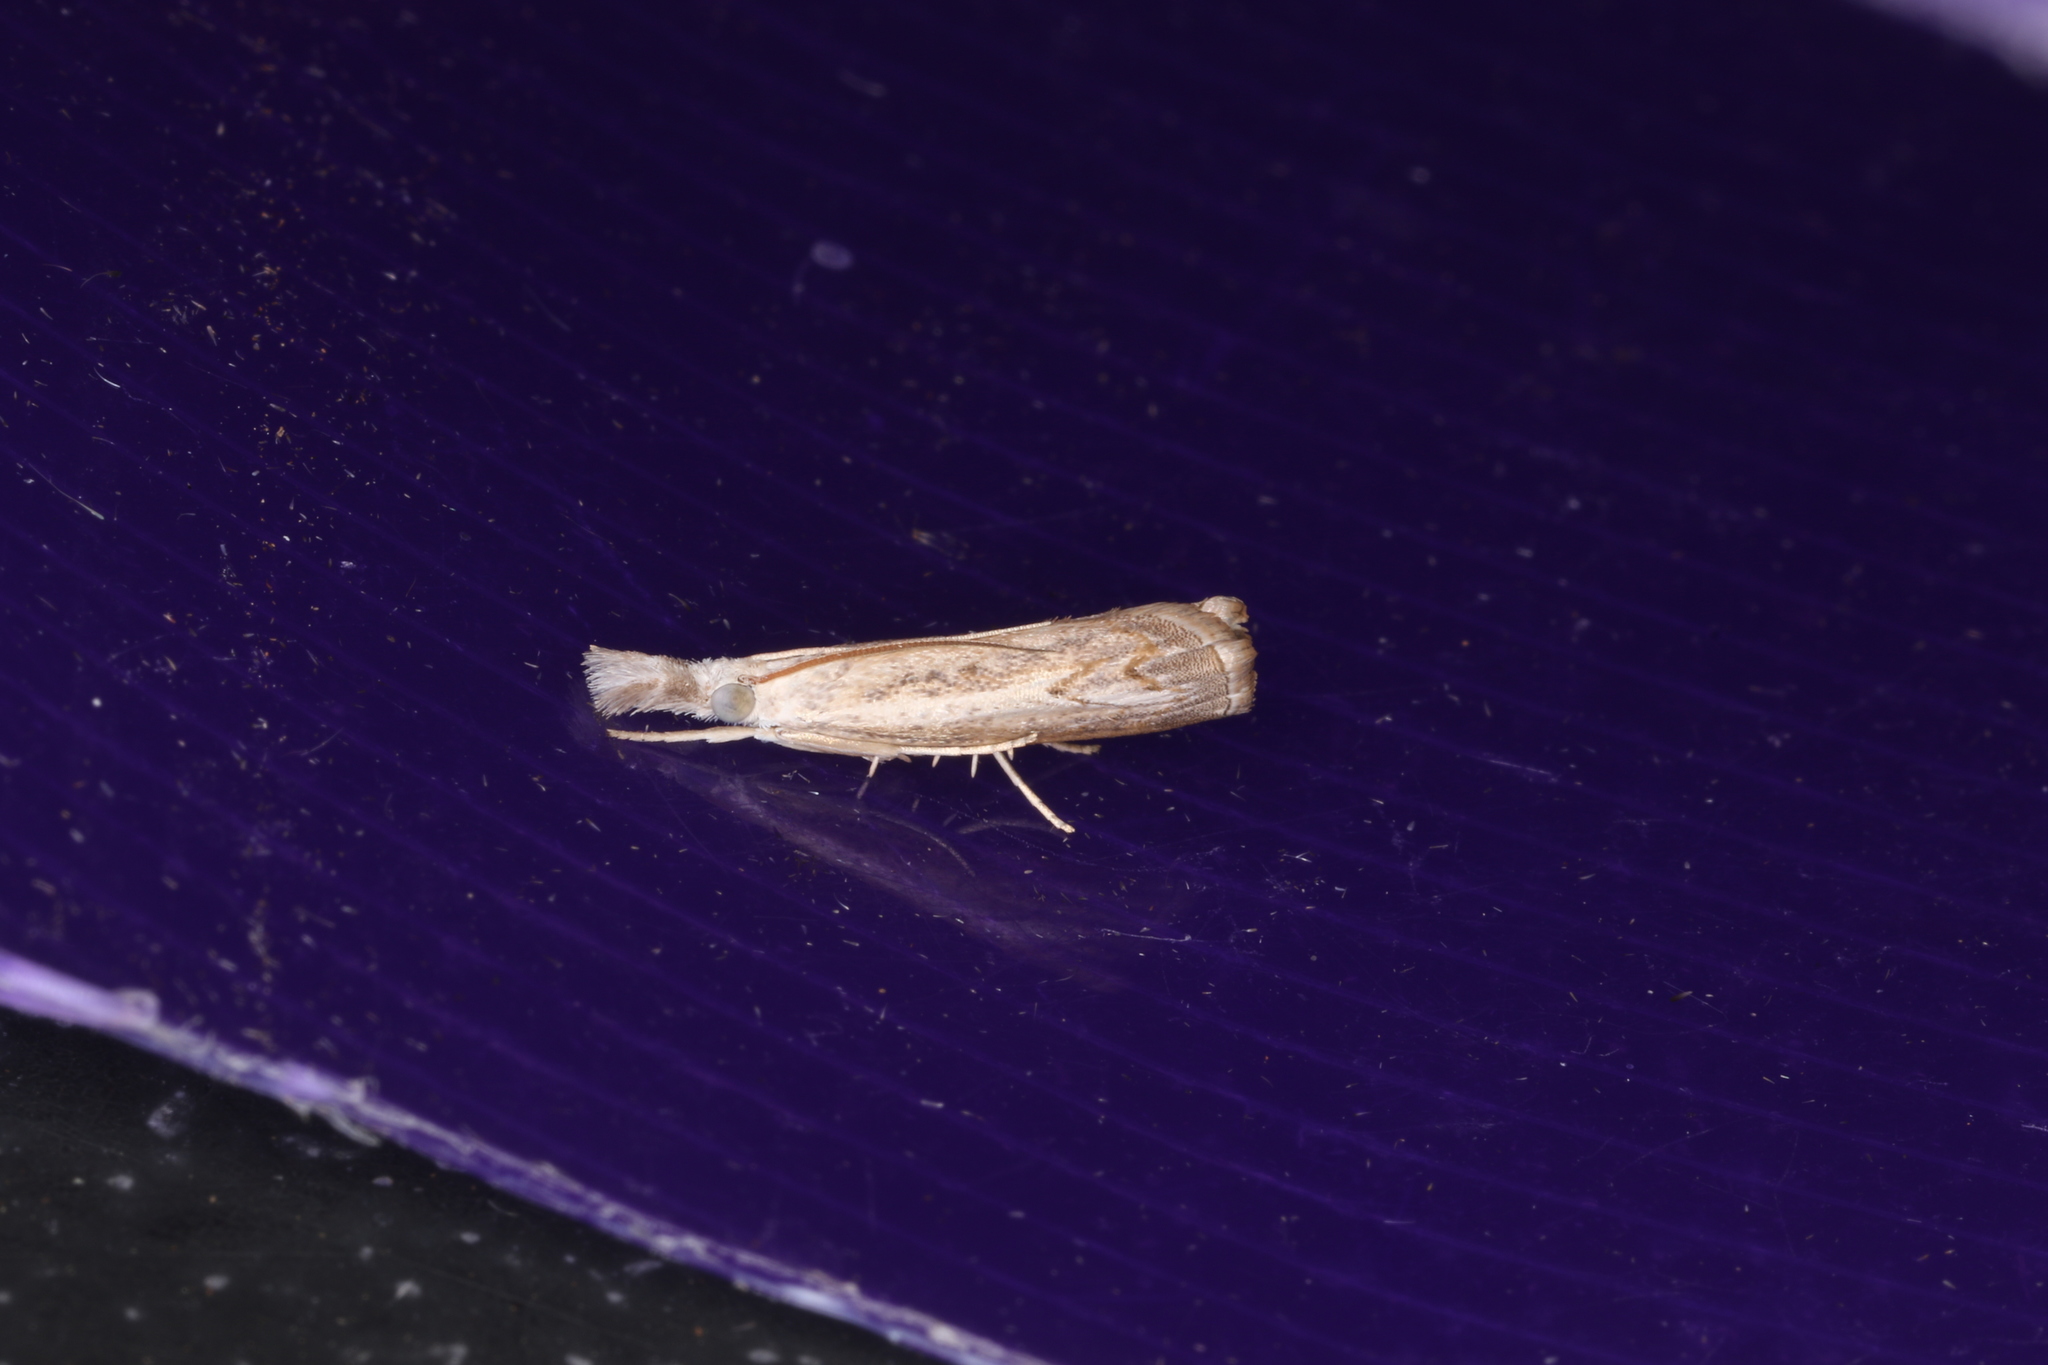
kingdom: Animalia
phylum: Arthropoda
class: Insecta
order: Lepidoptera
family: Crambidae
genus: Culladia
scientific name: Culladia cuneiferellus
